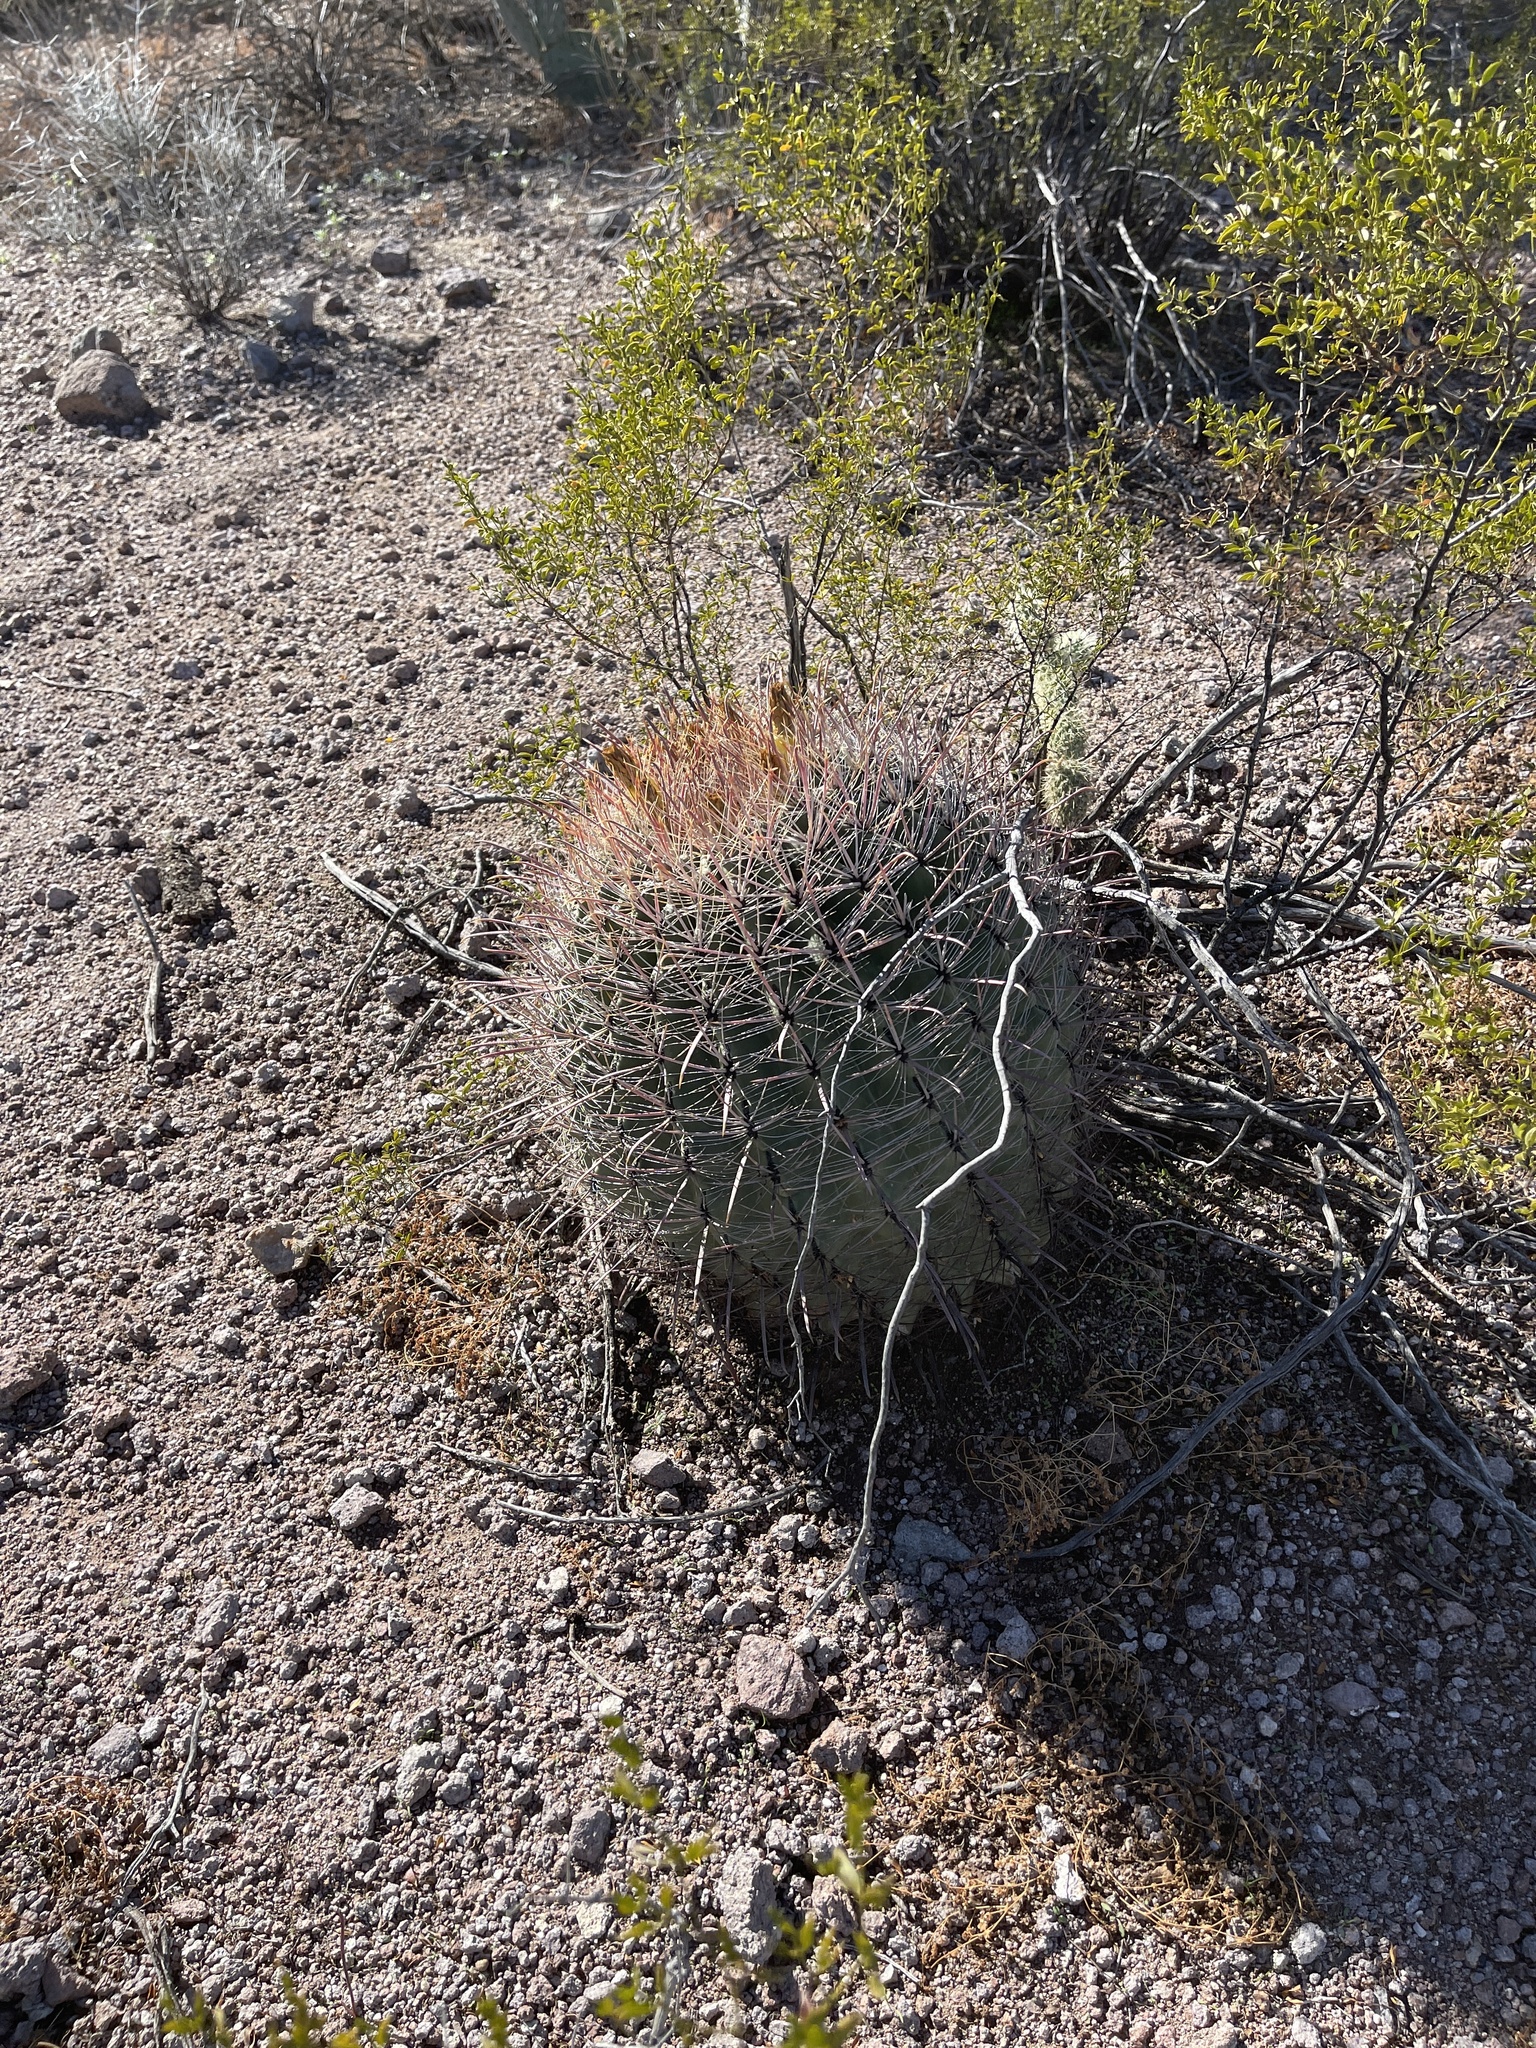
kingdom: Plantae
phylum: Tracheophyta
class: Magnoliopsida
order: Caryophyllales
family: Cactaceae
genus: Ferocactus
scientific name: Ferocactus wislizeni
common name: Candy barrel cactus
